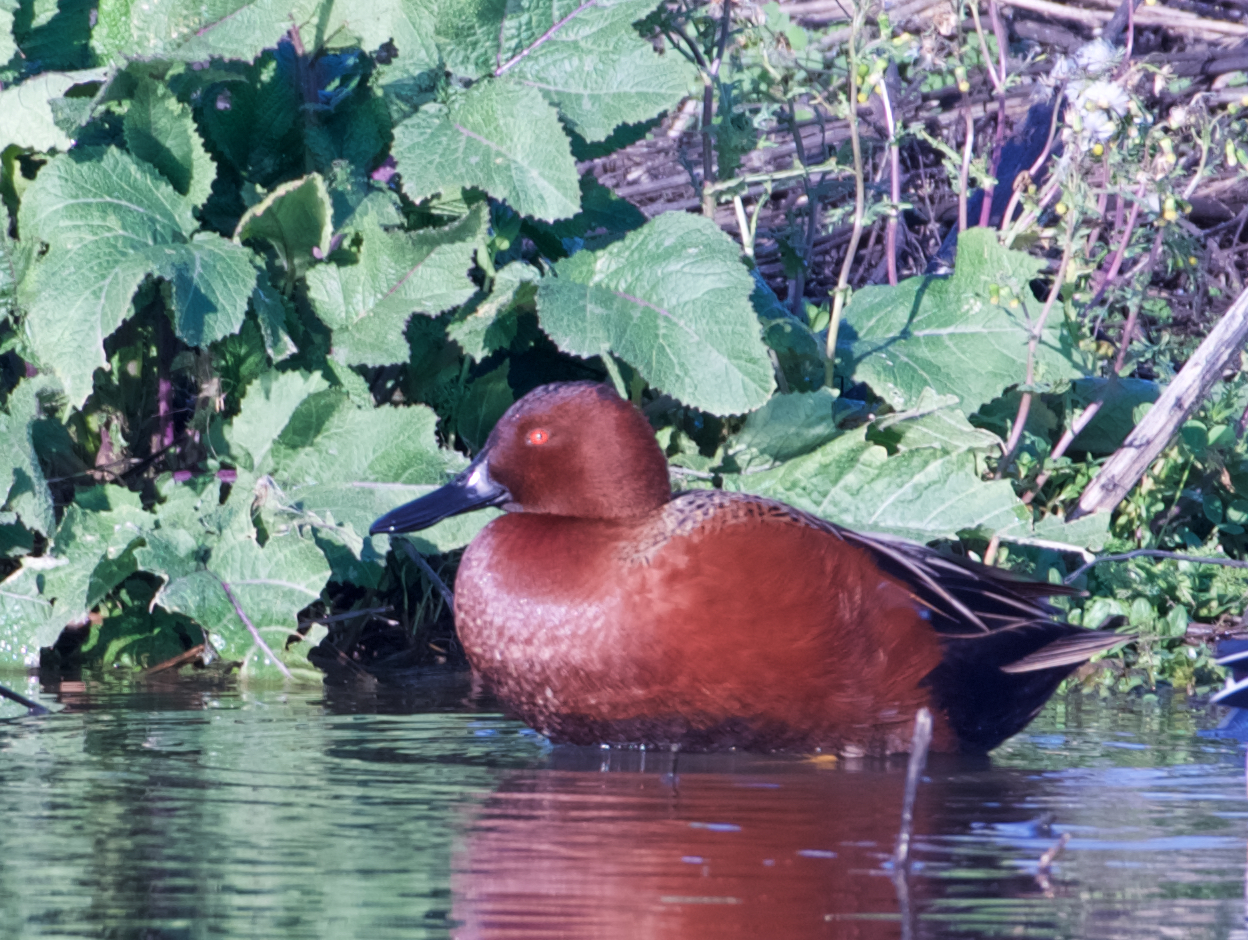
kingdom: Animalia
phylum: Chordata
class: Aves
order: Anseriformes
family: Anatidae
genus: Spatula
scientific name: Spatula cyanoptera
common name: Cinnamon teal
